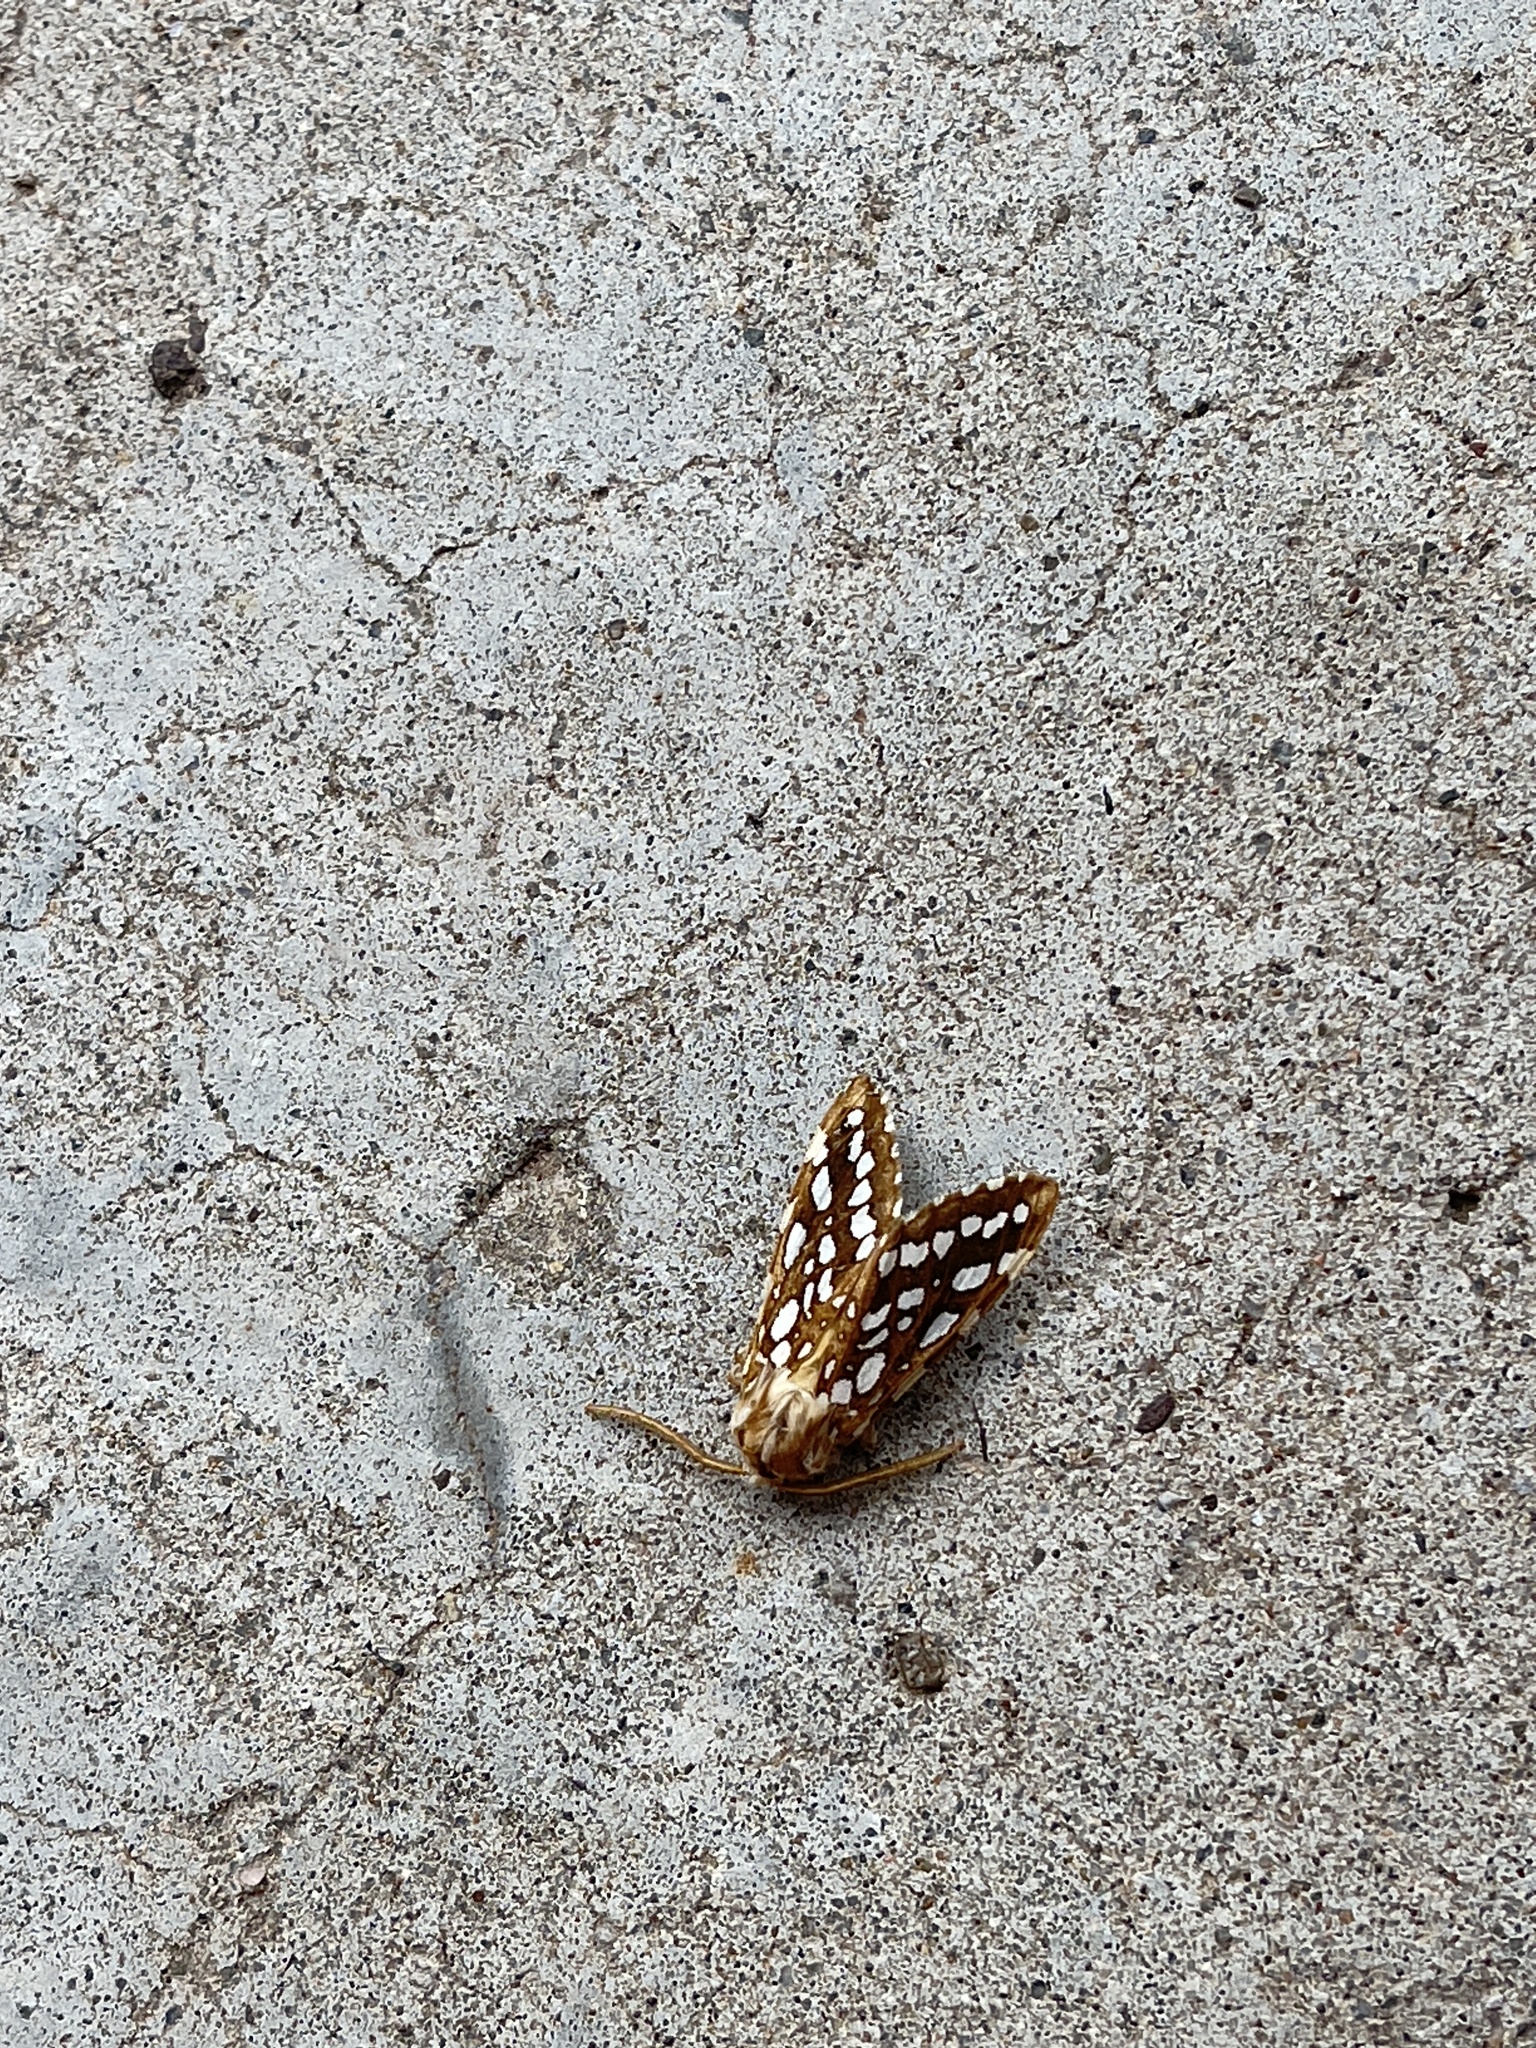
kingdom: Animalia
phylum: Arthropoda
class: Insecta
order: Lepidoptera
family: Erebidae
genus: Lophocampa
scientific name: Lophocampa argentata
